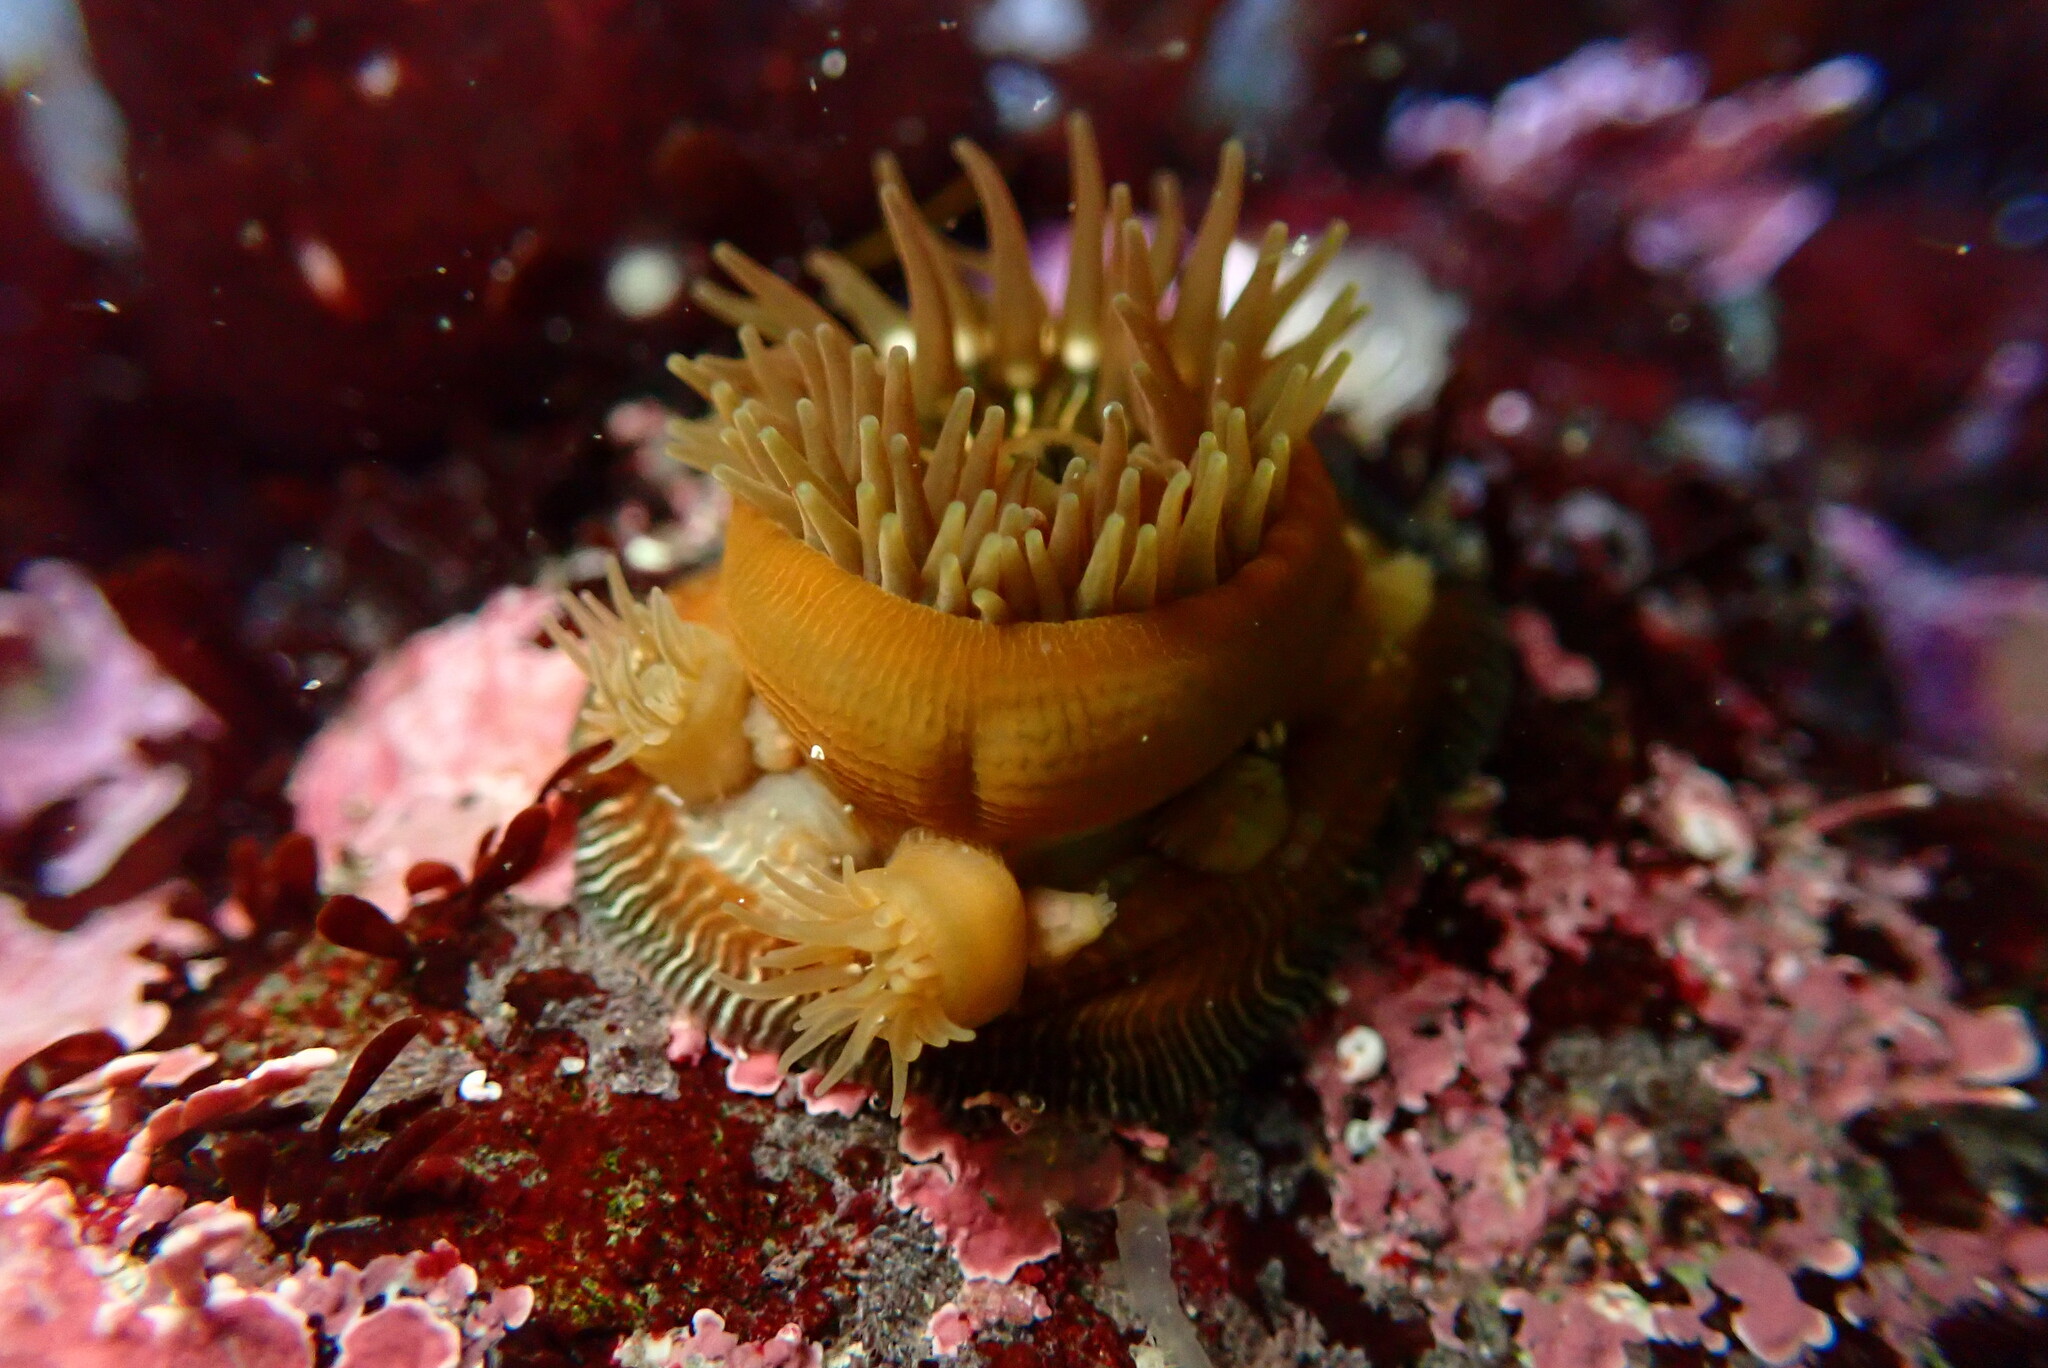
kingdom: Animalia
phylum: Cnidaria
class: Anthozoa
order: Actiniaria
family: Actiniidae
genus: Epiactis
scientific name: Epiactis prolifera
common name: Brooding anemone
